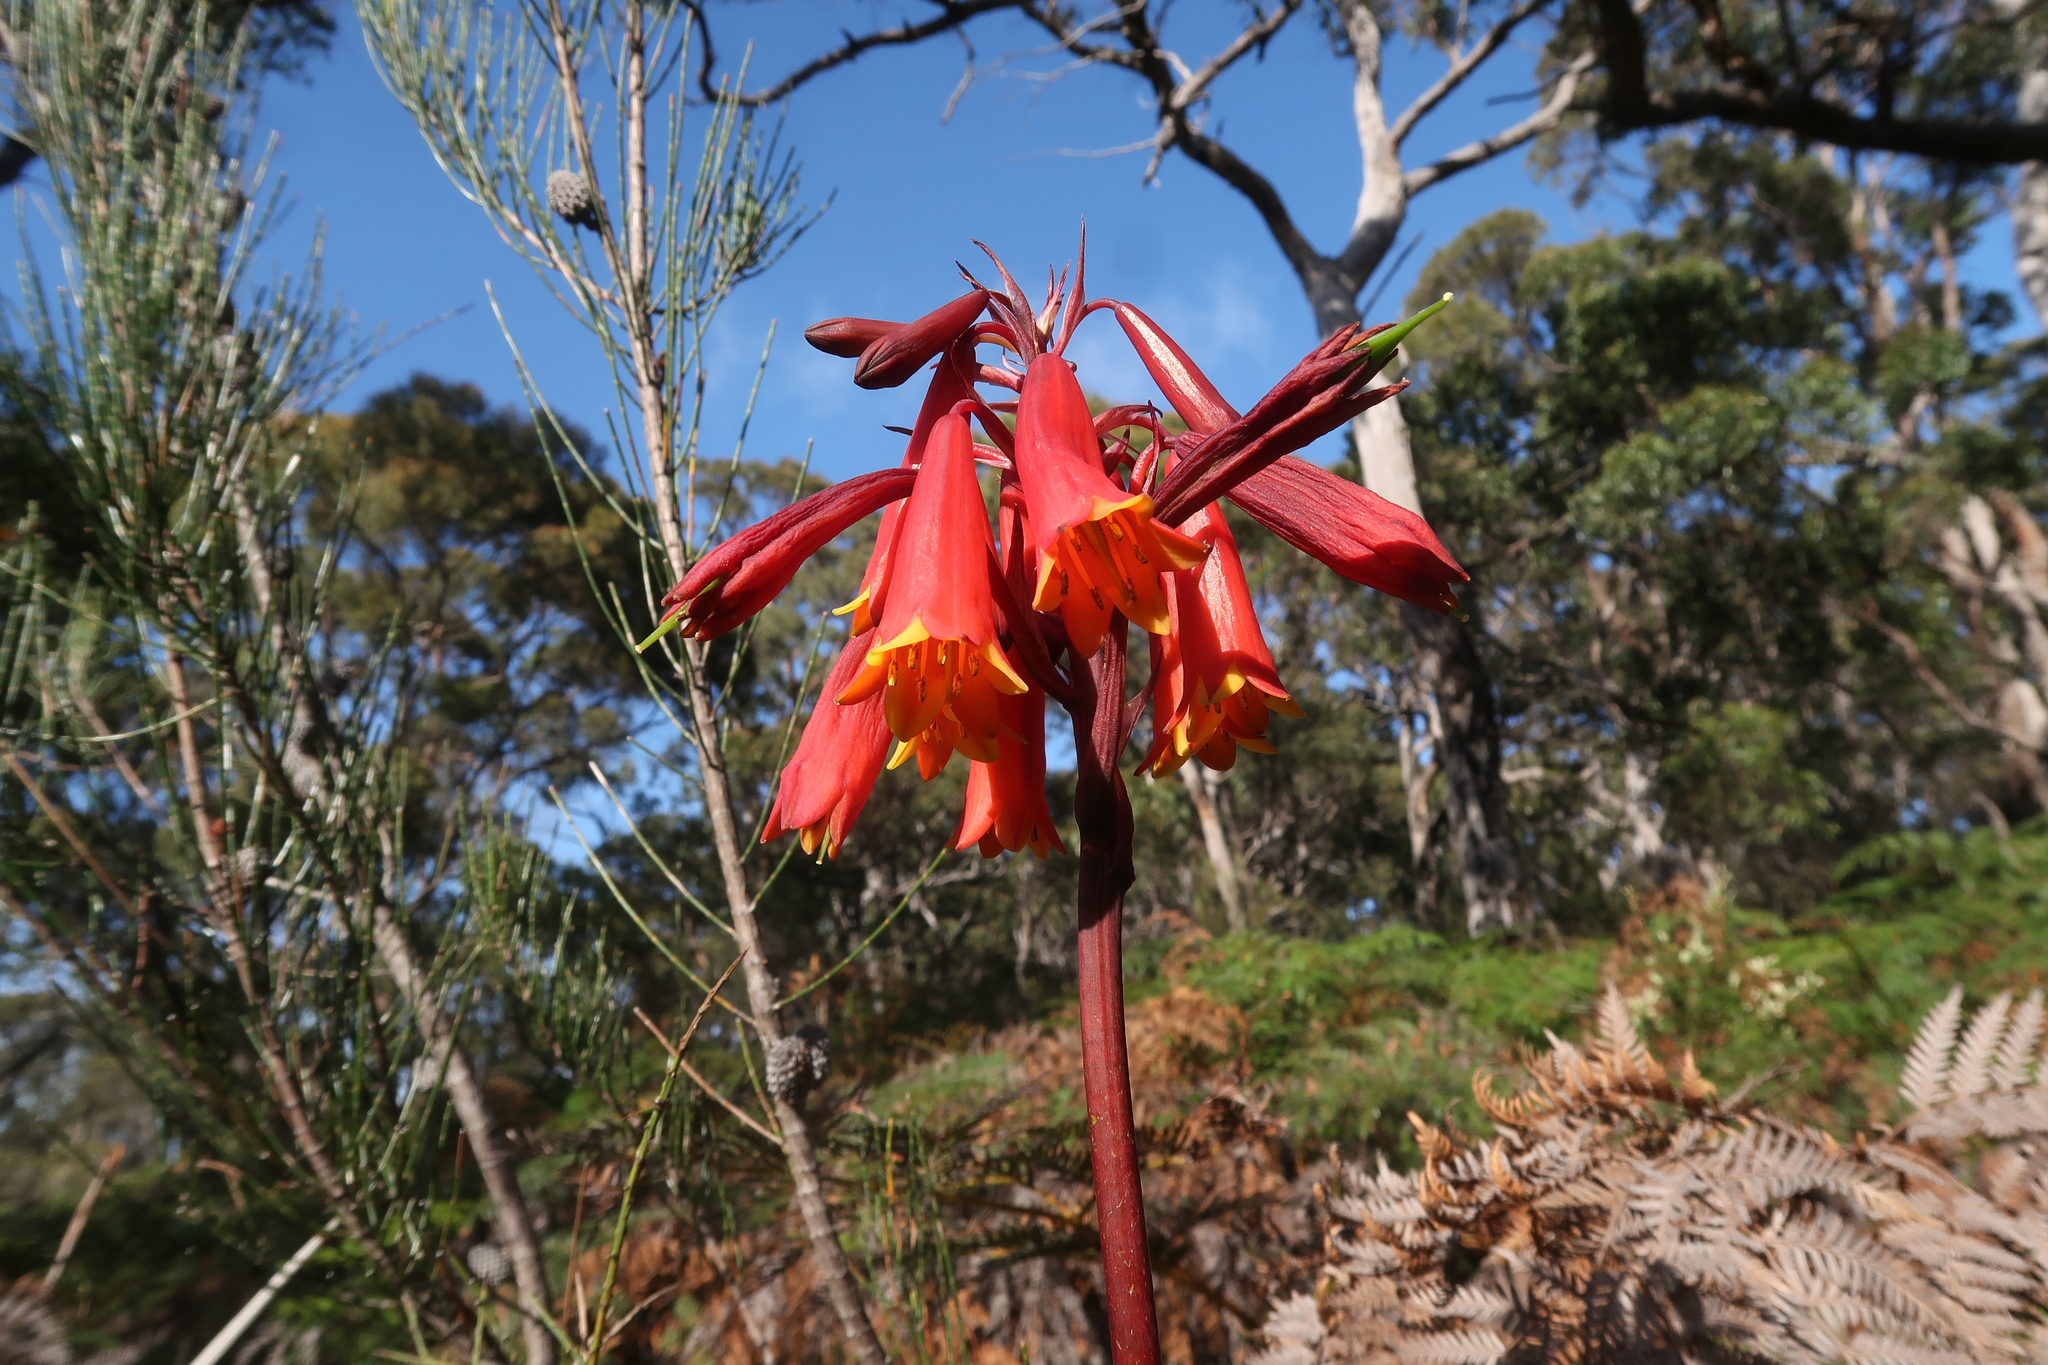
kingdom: Plantae
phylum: Tracheophyta
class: Liliopsida
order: Asparagales
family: Blandfordiaceae
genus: Blandfordia
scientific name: Blandfordia punicea
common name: Tasmanian christmas-bell
